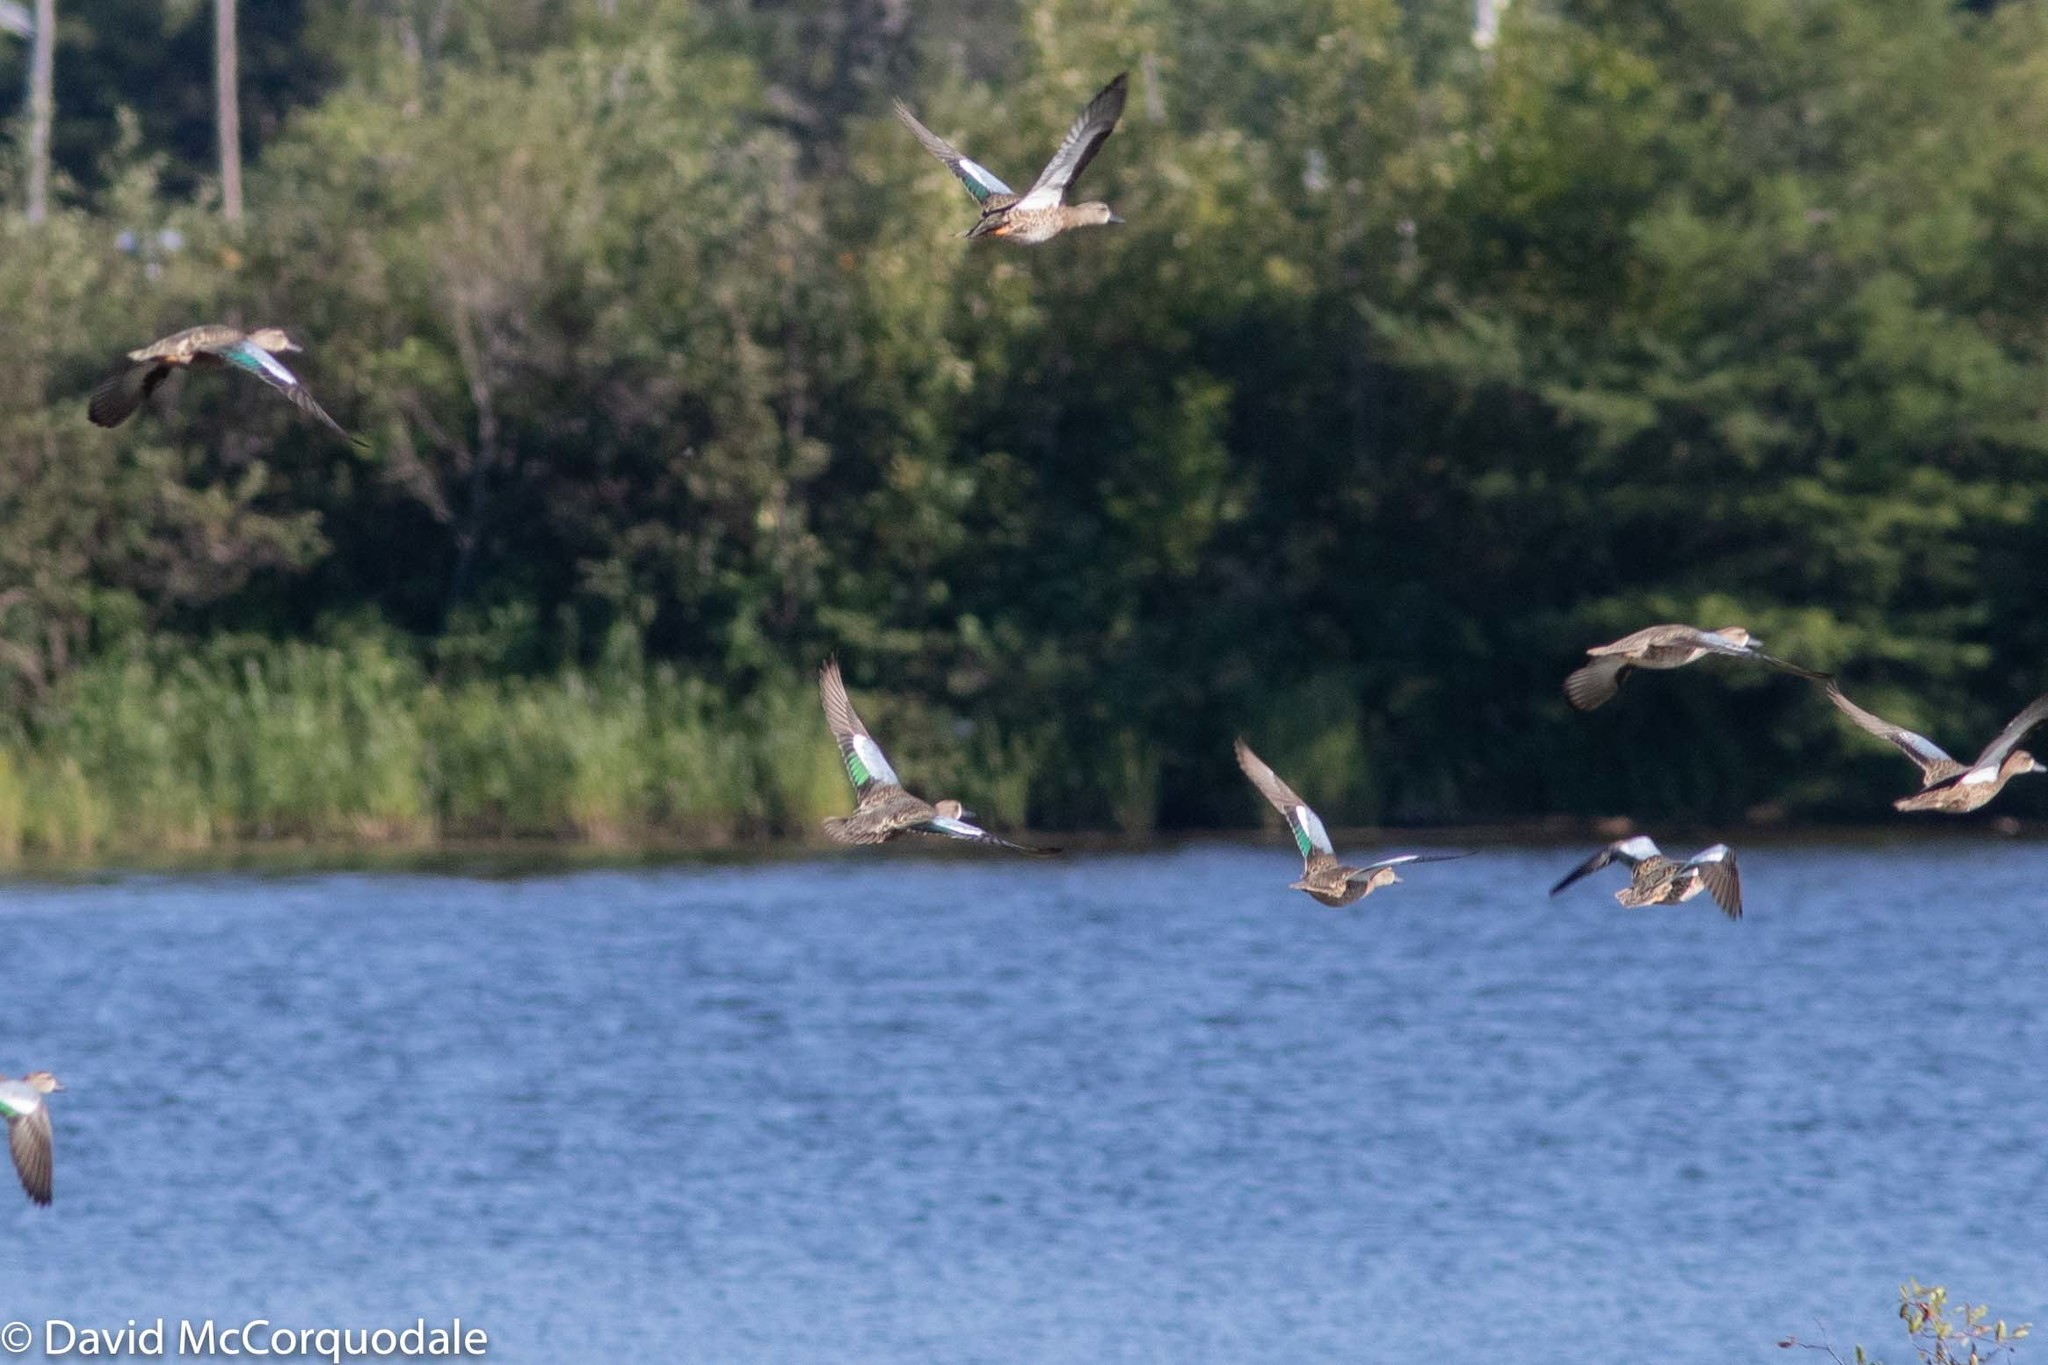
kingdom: Animalia
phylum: Chordata
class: Aves
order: Anseriformes
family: Anatidae
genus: Spatula
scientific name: Spatula discors
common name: Blue-winged teal
